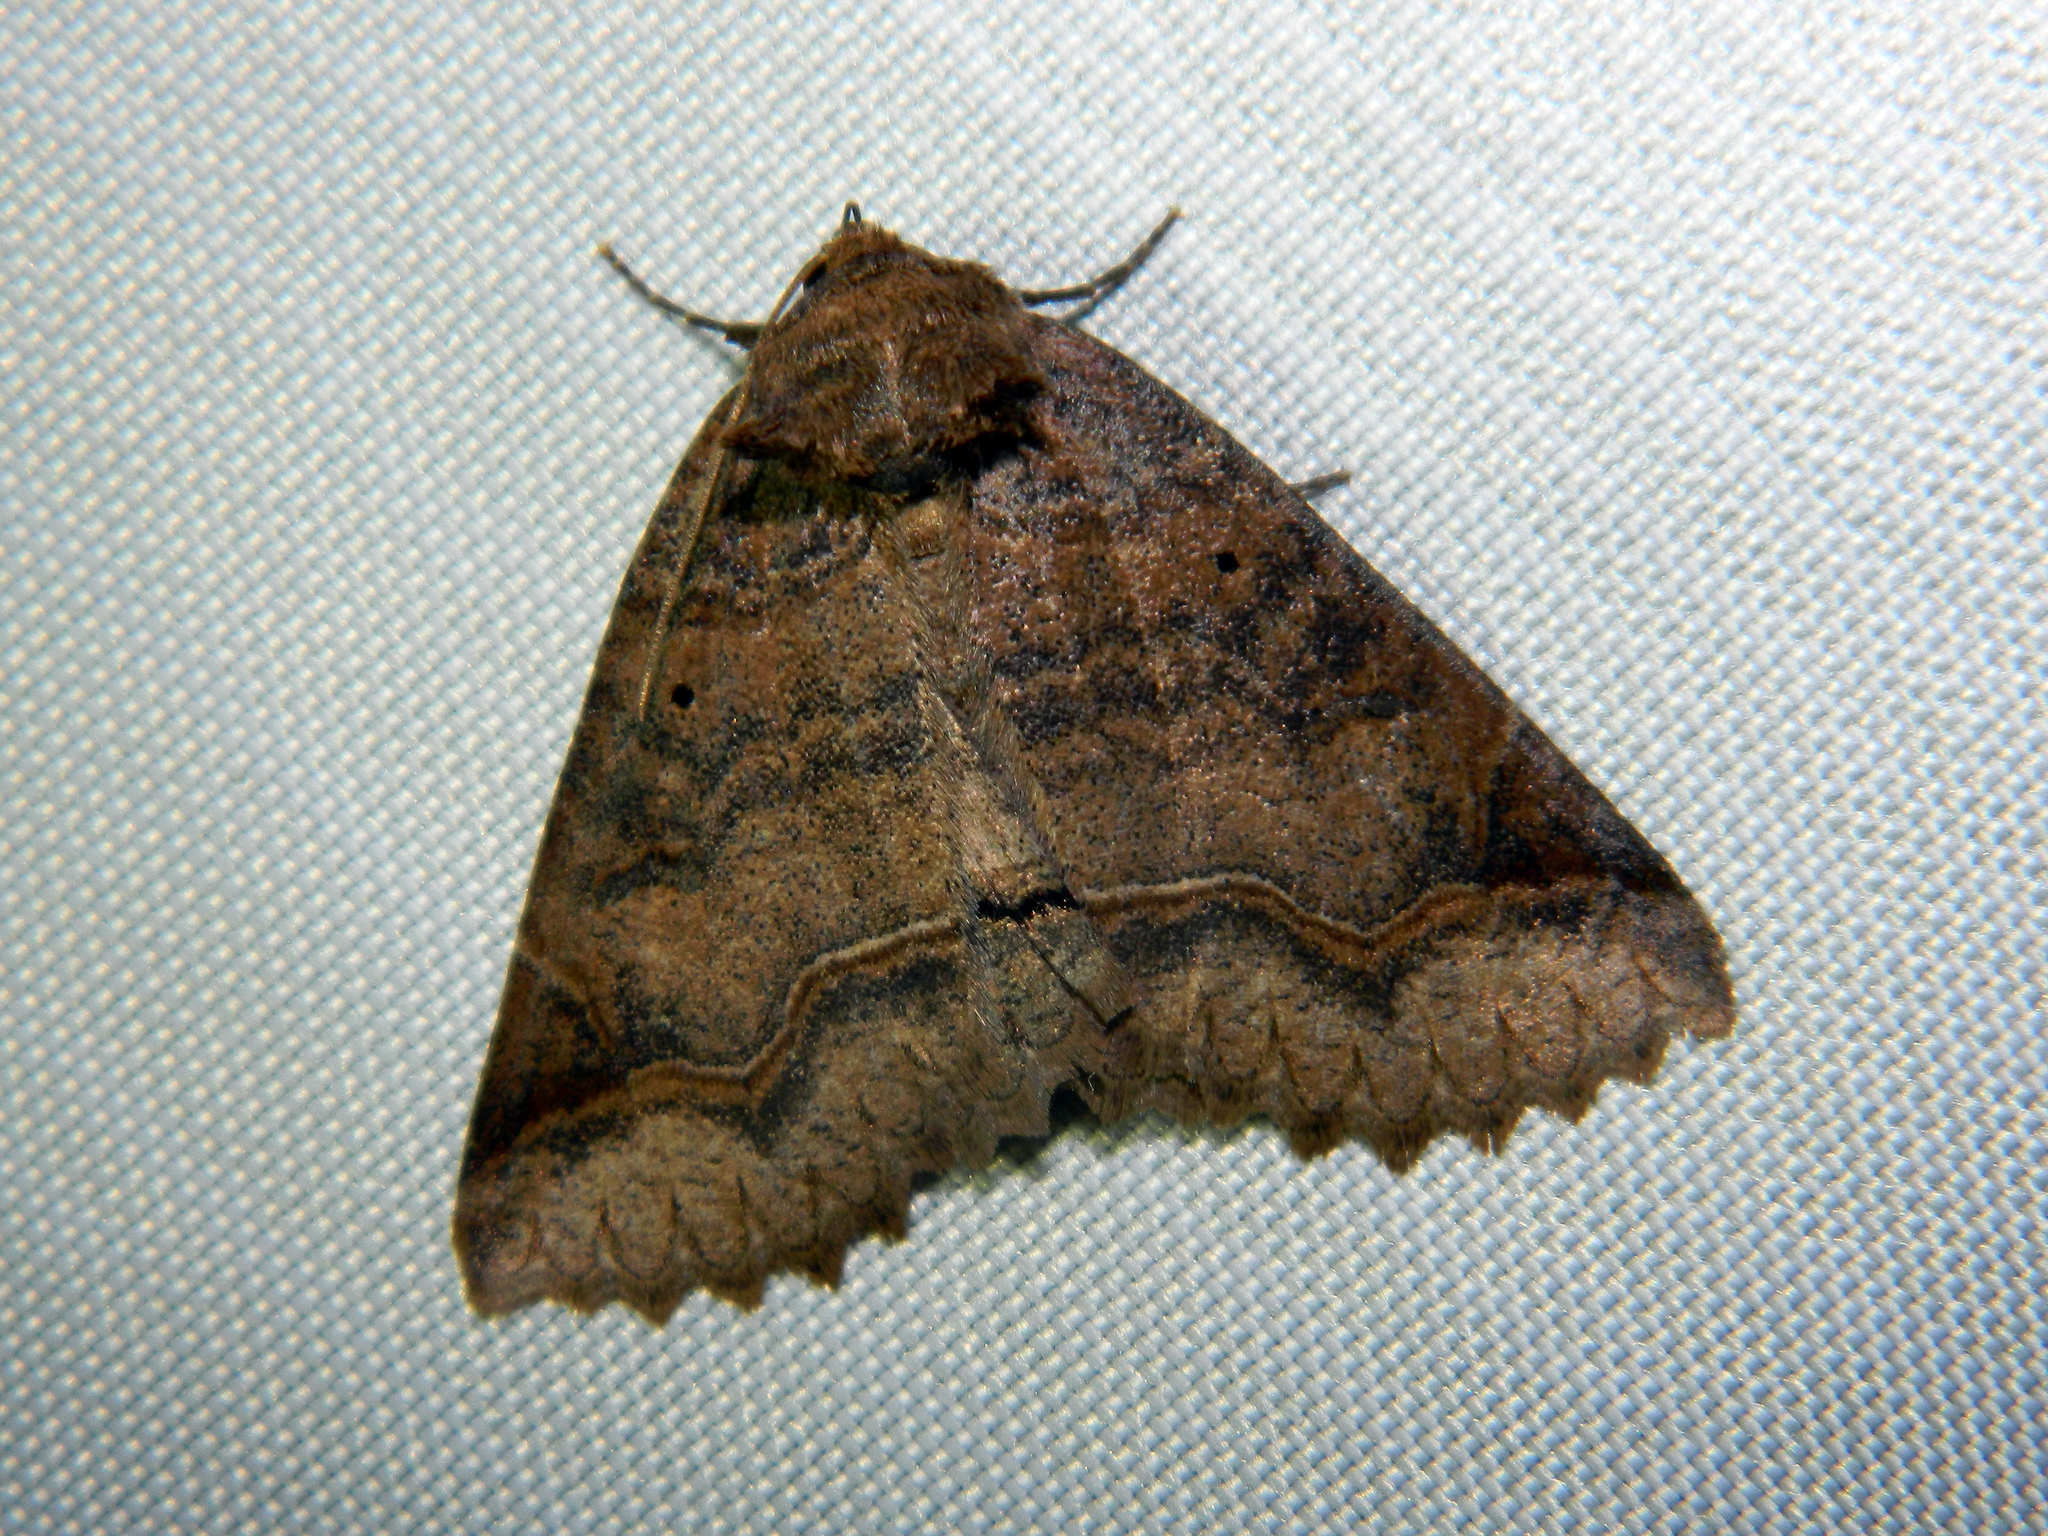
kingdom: Animalia
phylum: Arthropoda
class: Insecta
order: Lepidoptera
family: Erebidae
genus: Zale
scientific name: Zale unilineata
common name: One-lined zale moth
